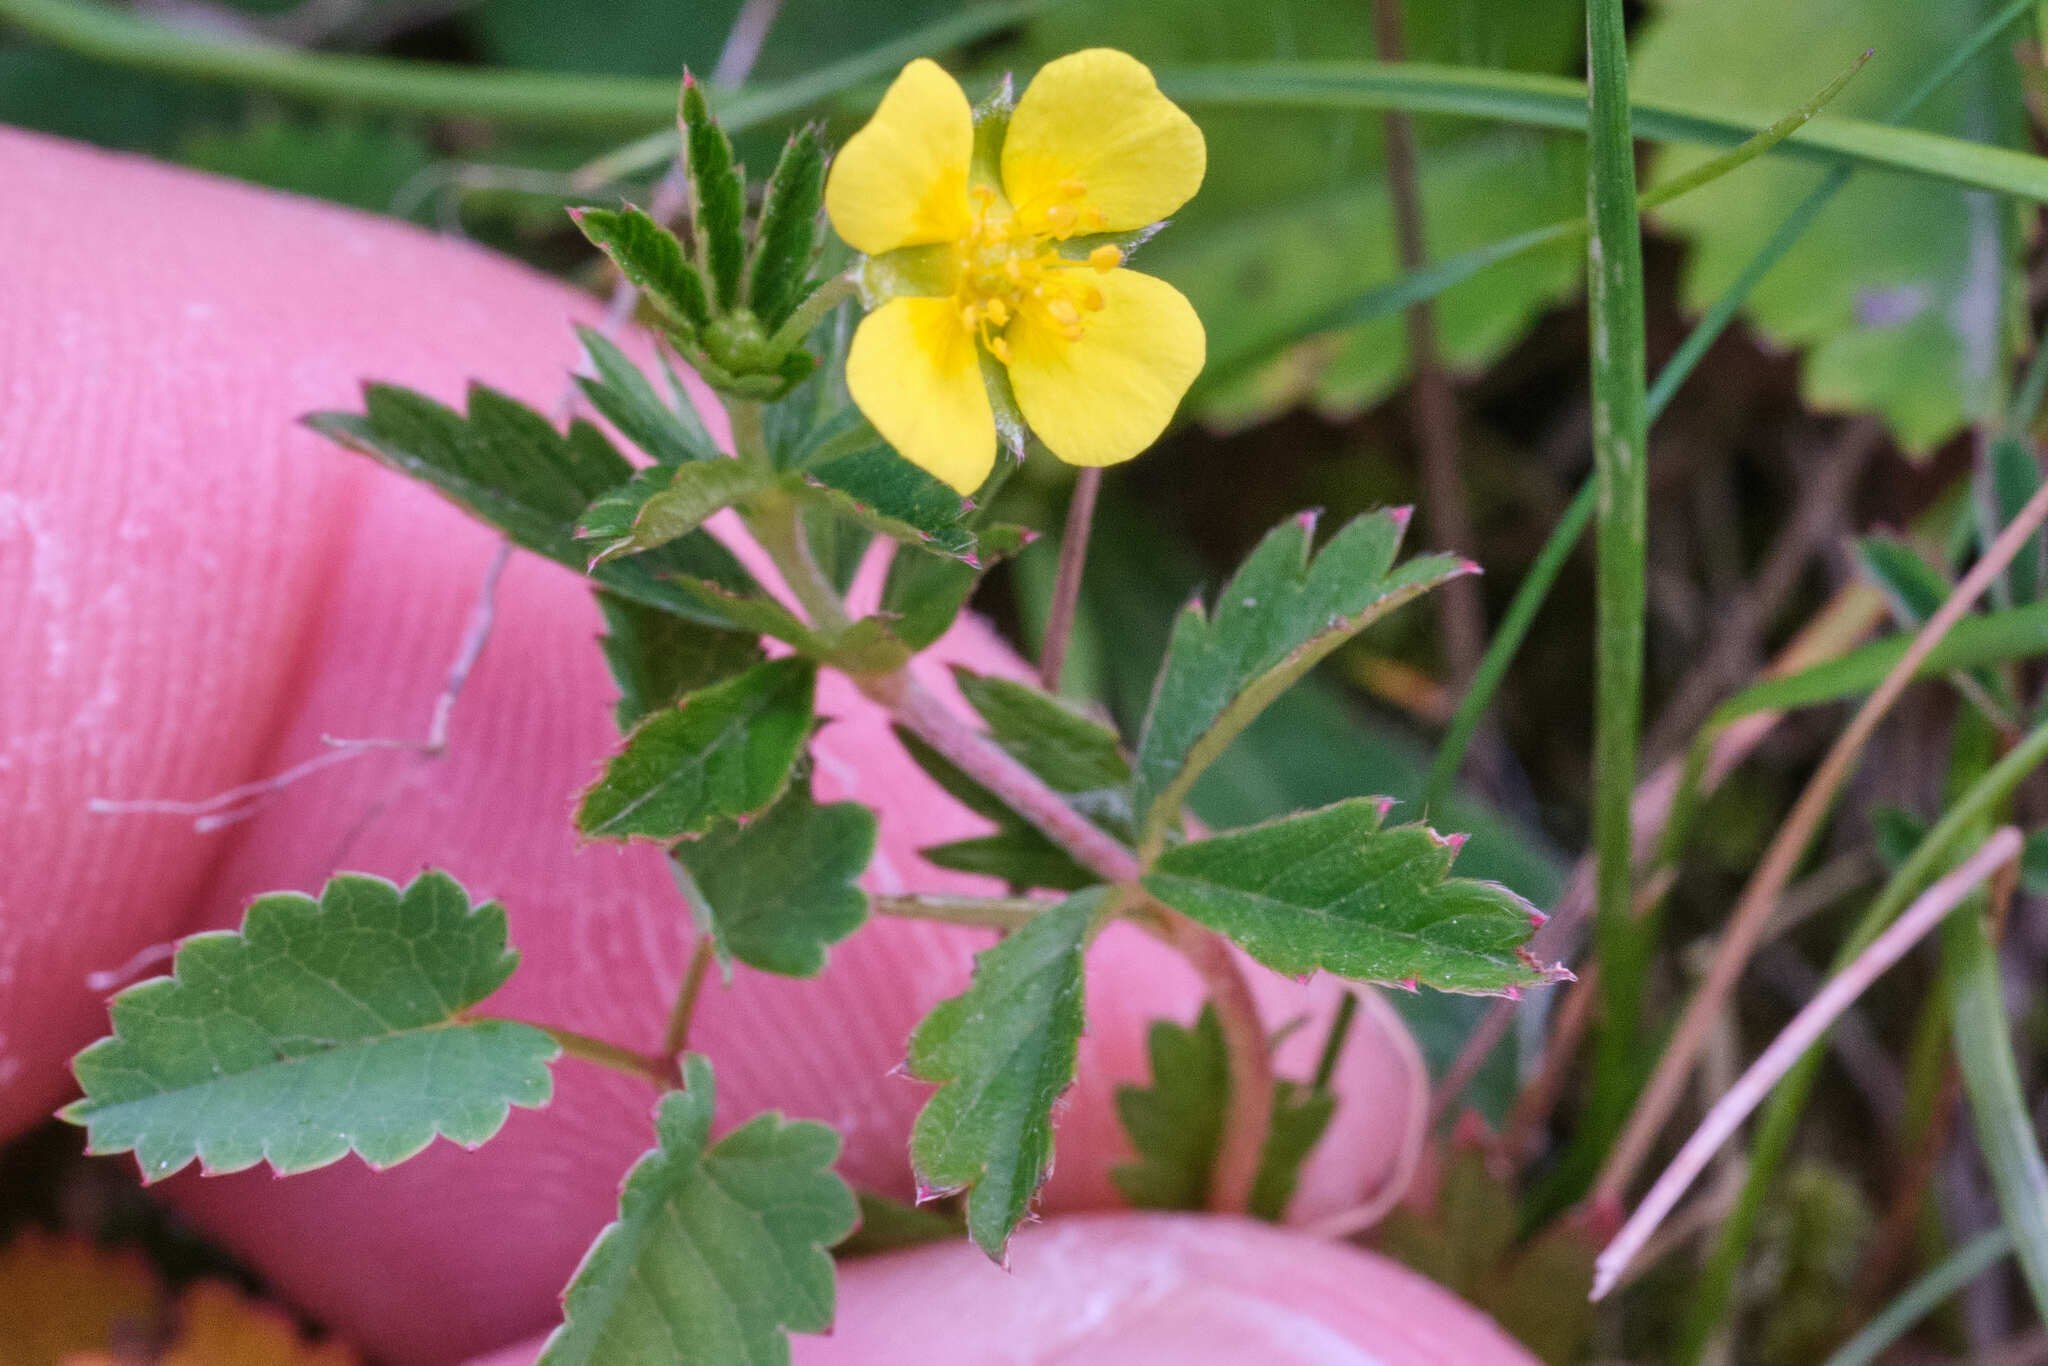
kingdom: Plantae
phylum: Tracheophyta
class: Magnoliopsida
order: Rosales
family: Rosaceae
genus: Potentilla
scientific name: Potentilla erecta
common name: Tormentil
